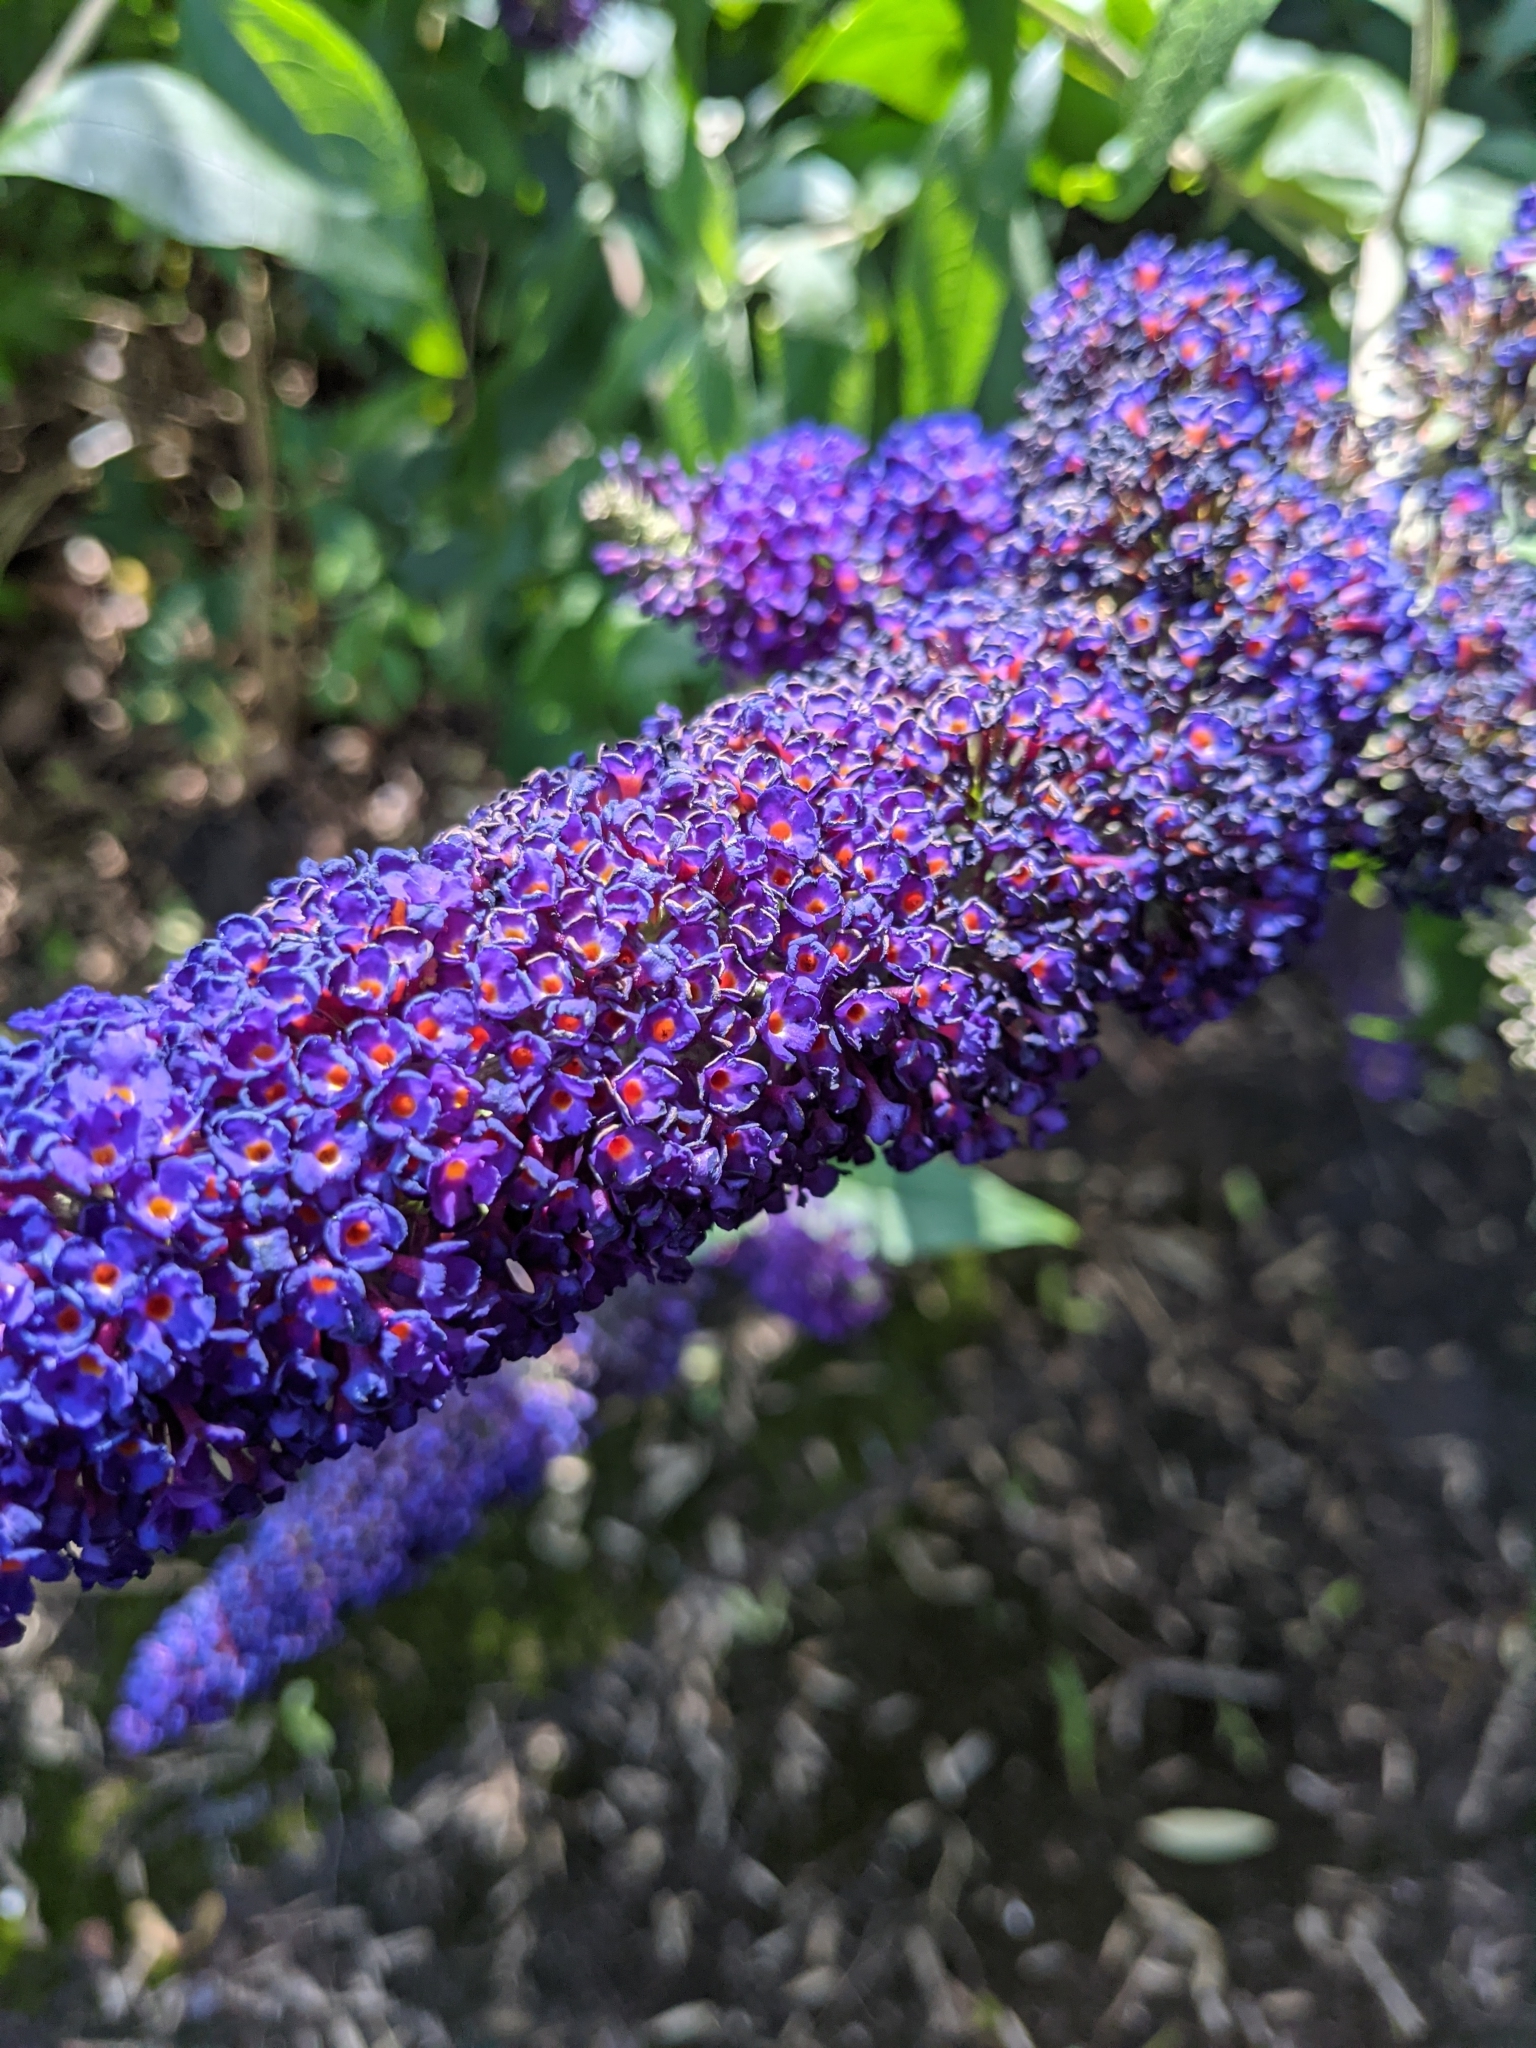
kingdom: Plantae
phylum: Tracheophyta
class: Magnoliopsida
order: Lamiales
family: Scrophulariaceae
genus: Buddleja
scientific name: Buddleja davidii
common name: Butterfly-bush
